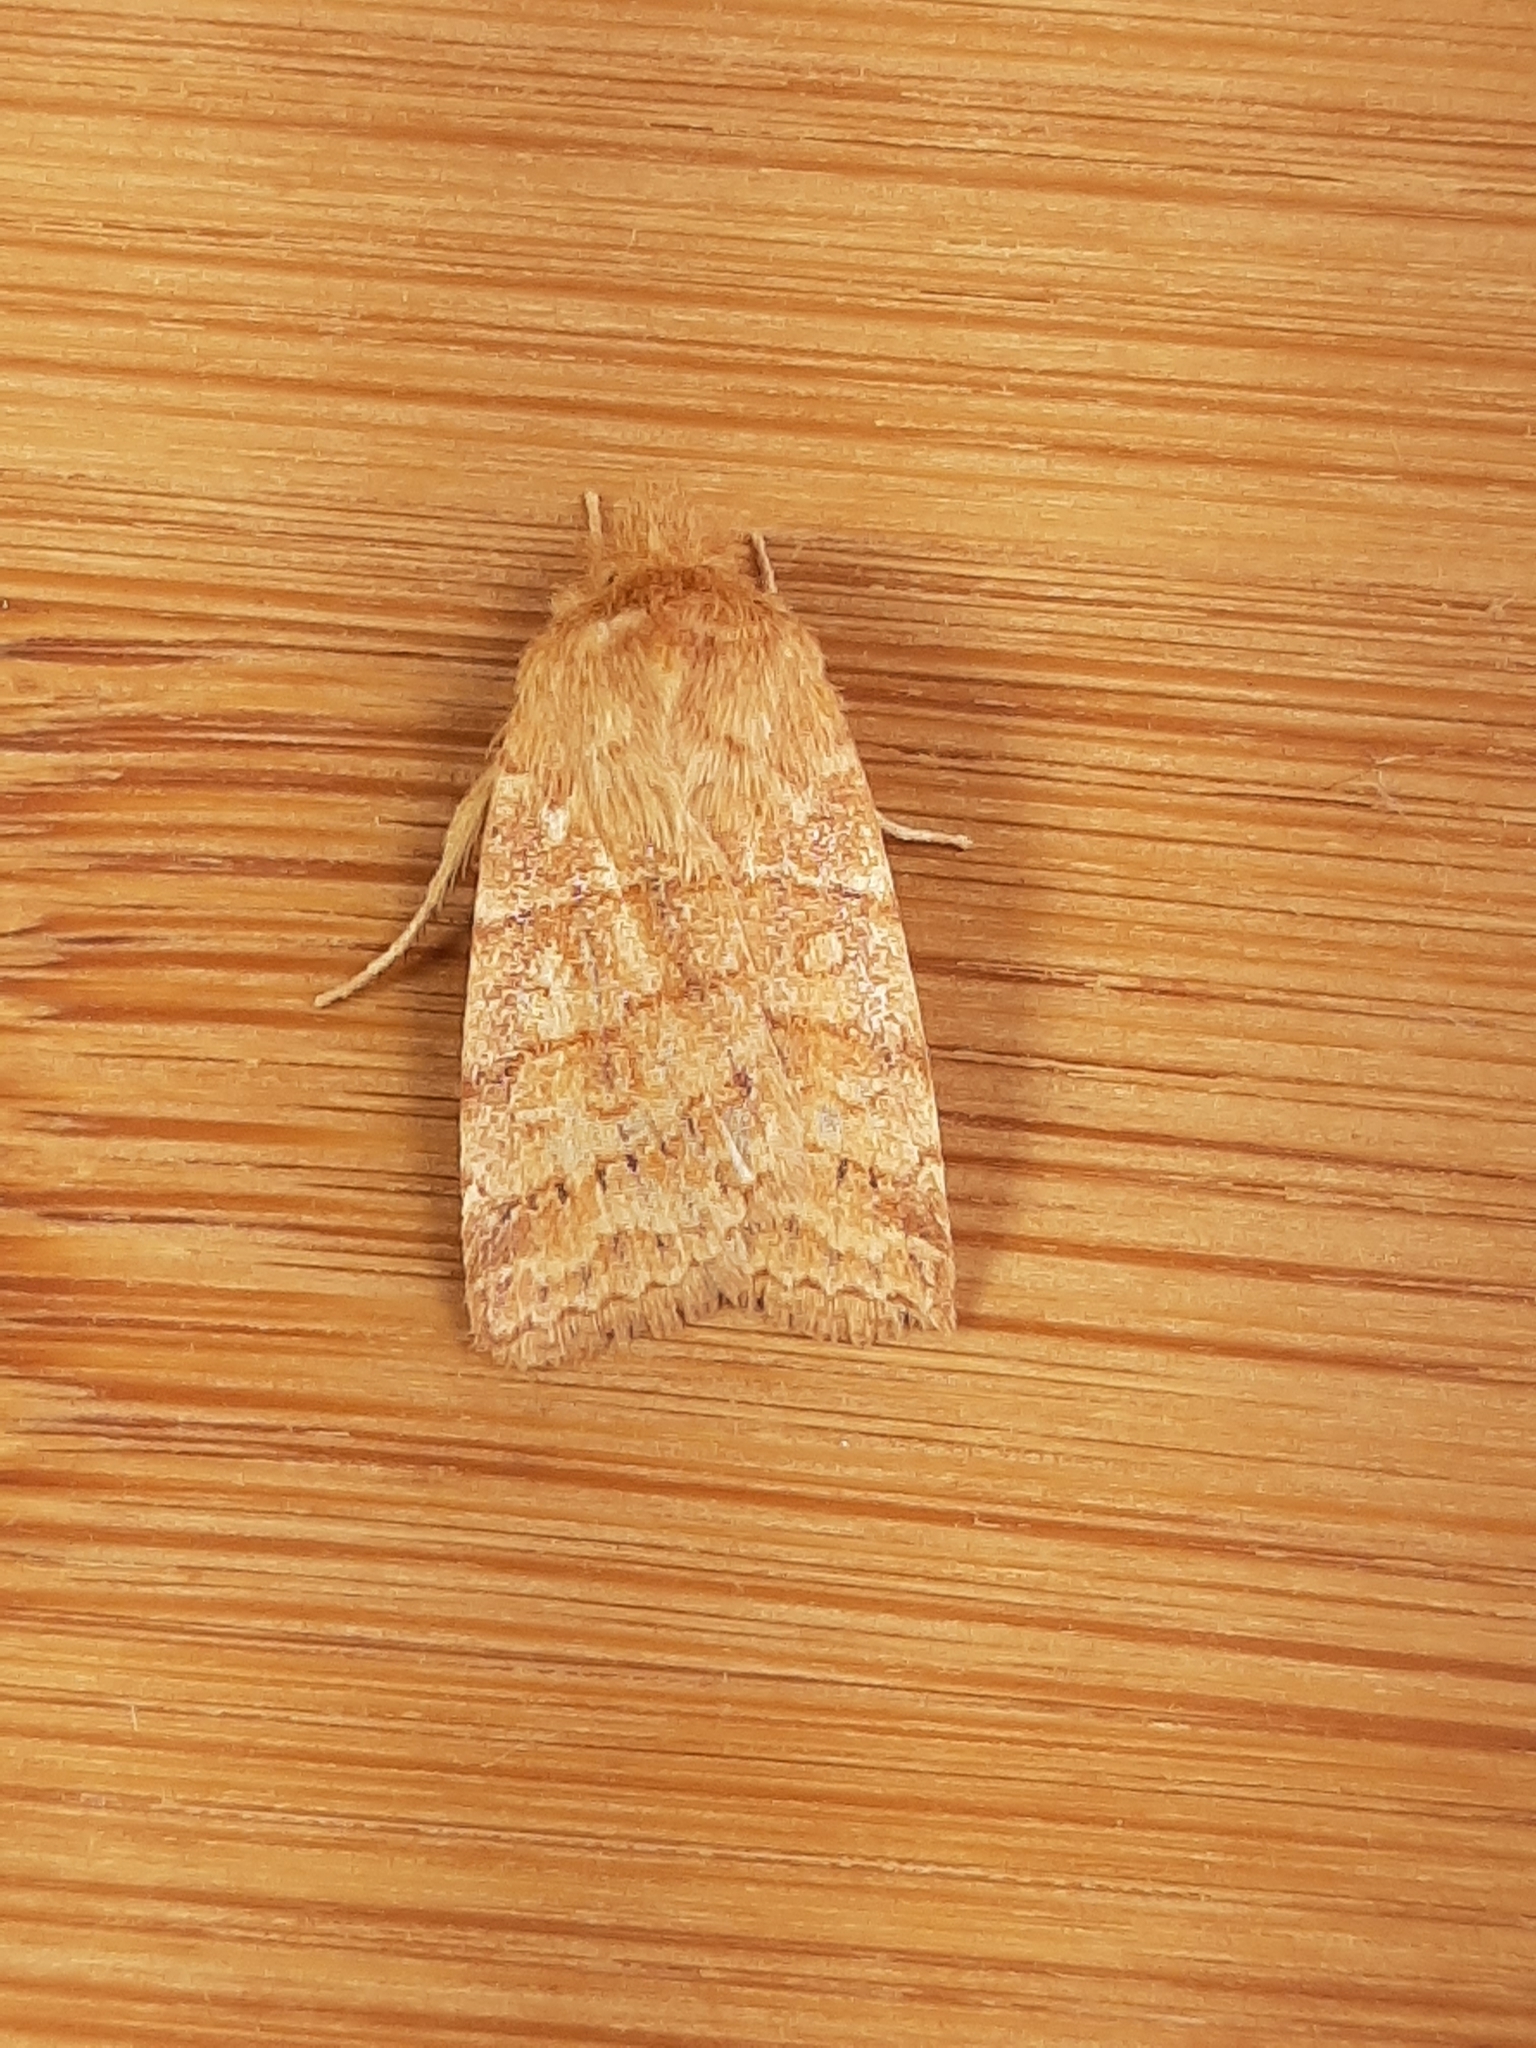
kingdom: Animalia
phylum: Arthropoda
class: Insecta
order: Lepidoptera
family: Noctuidae
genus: Pyreferra
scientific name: Pyreferra pettiti
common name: Pettit's sallow
